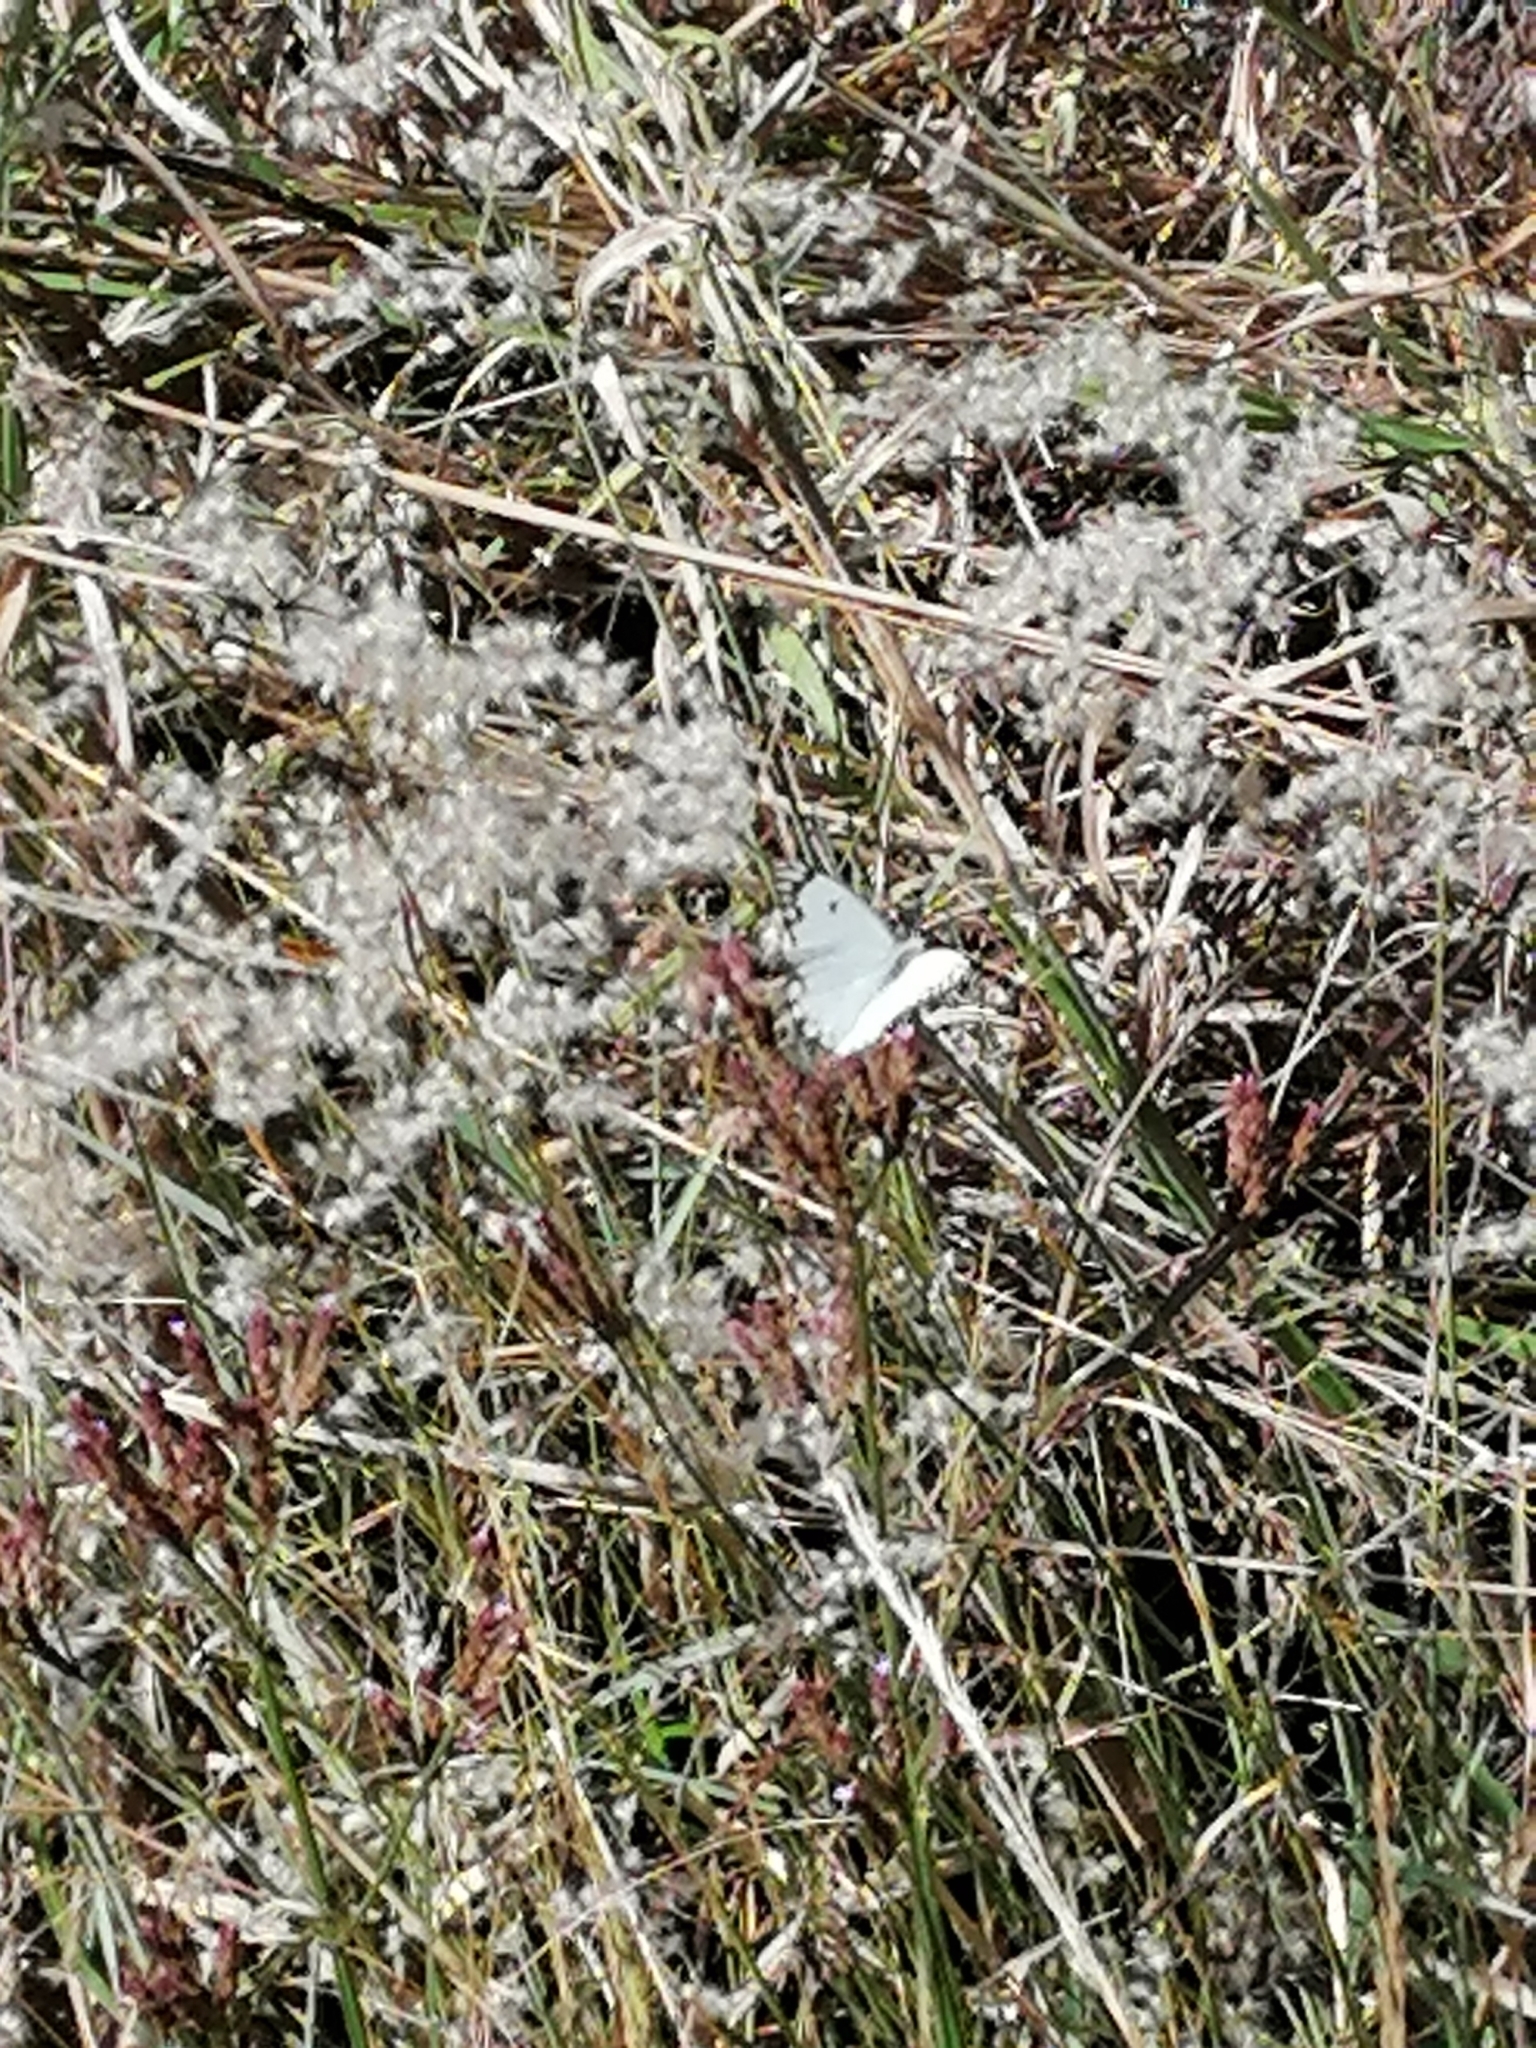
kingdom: Animalia
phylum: Arthropoda
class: Insecta
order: Lepidoptera
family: Pieridae
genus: Belenois
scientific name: Belenois aurota
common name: Brown-veined white
